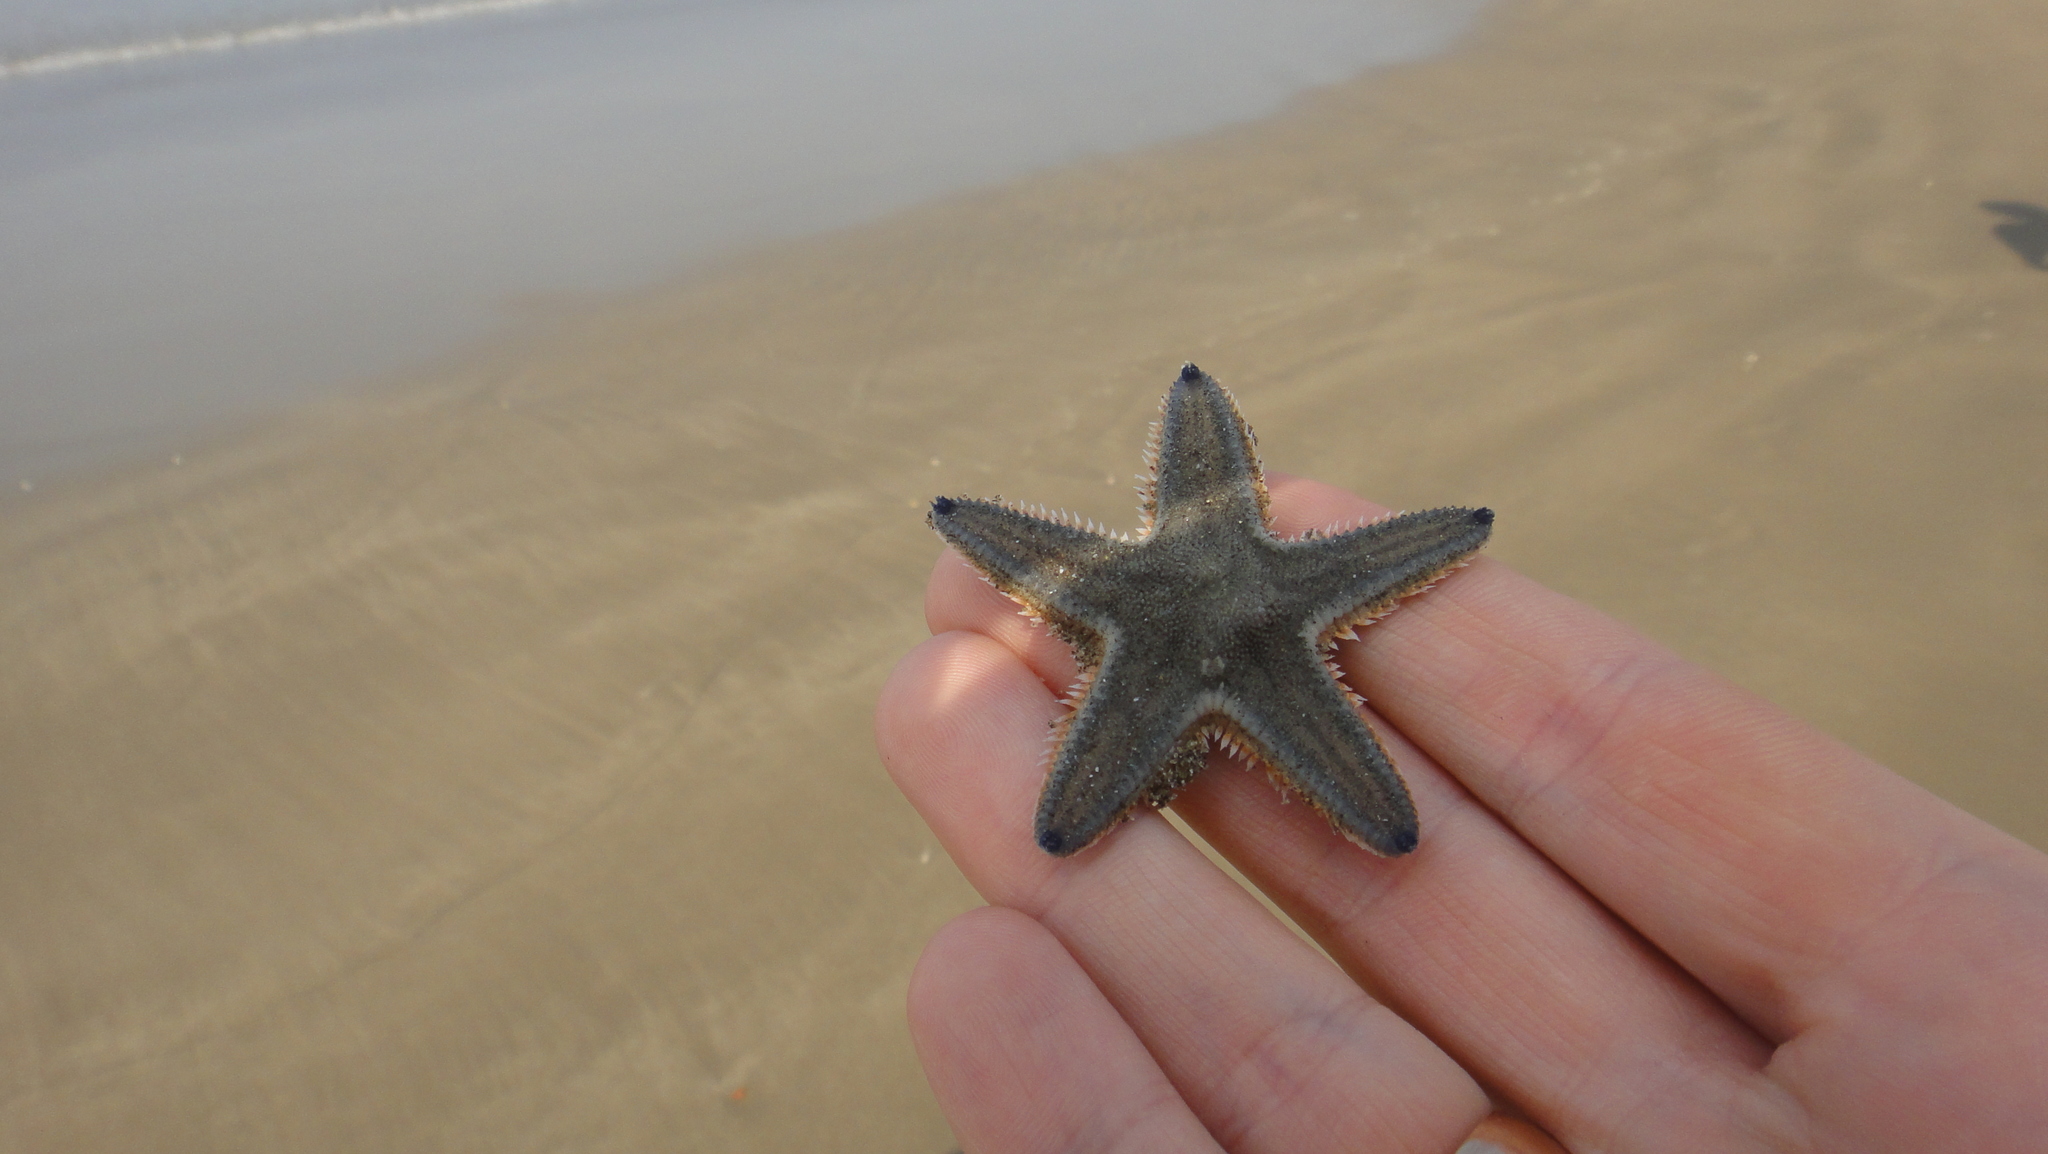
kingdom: Animalia
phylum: Echinodermata
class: Asteroidea
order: Paxillosida
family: Astropectinidae
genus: Astropecten
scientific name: Astropecten indicus
